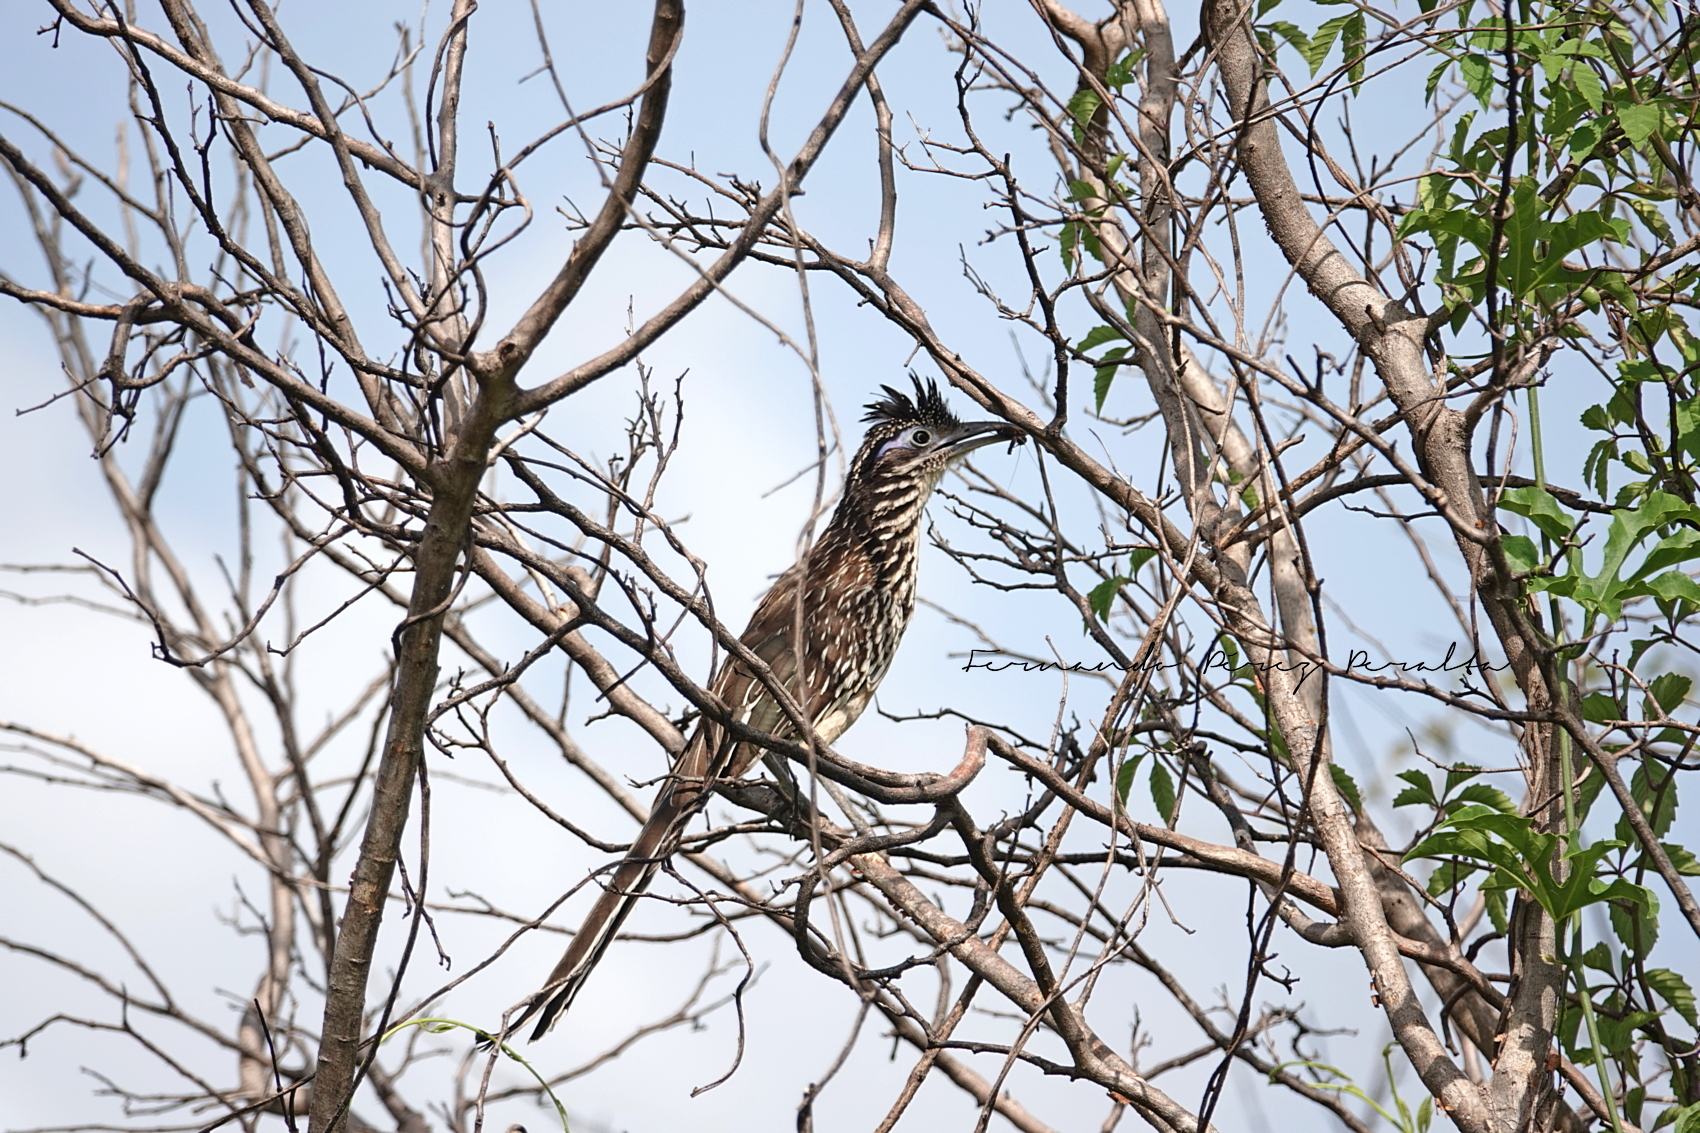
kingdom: Animalia
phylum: Chordata
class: Aves
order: Cuculiformes
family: Cuculidae
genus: Geococcyx
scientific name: Geococcyx velox
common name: Lesser roadrunner
